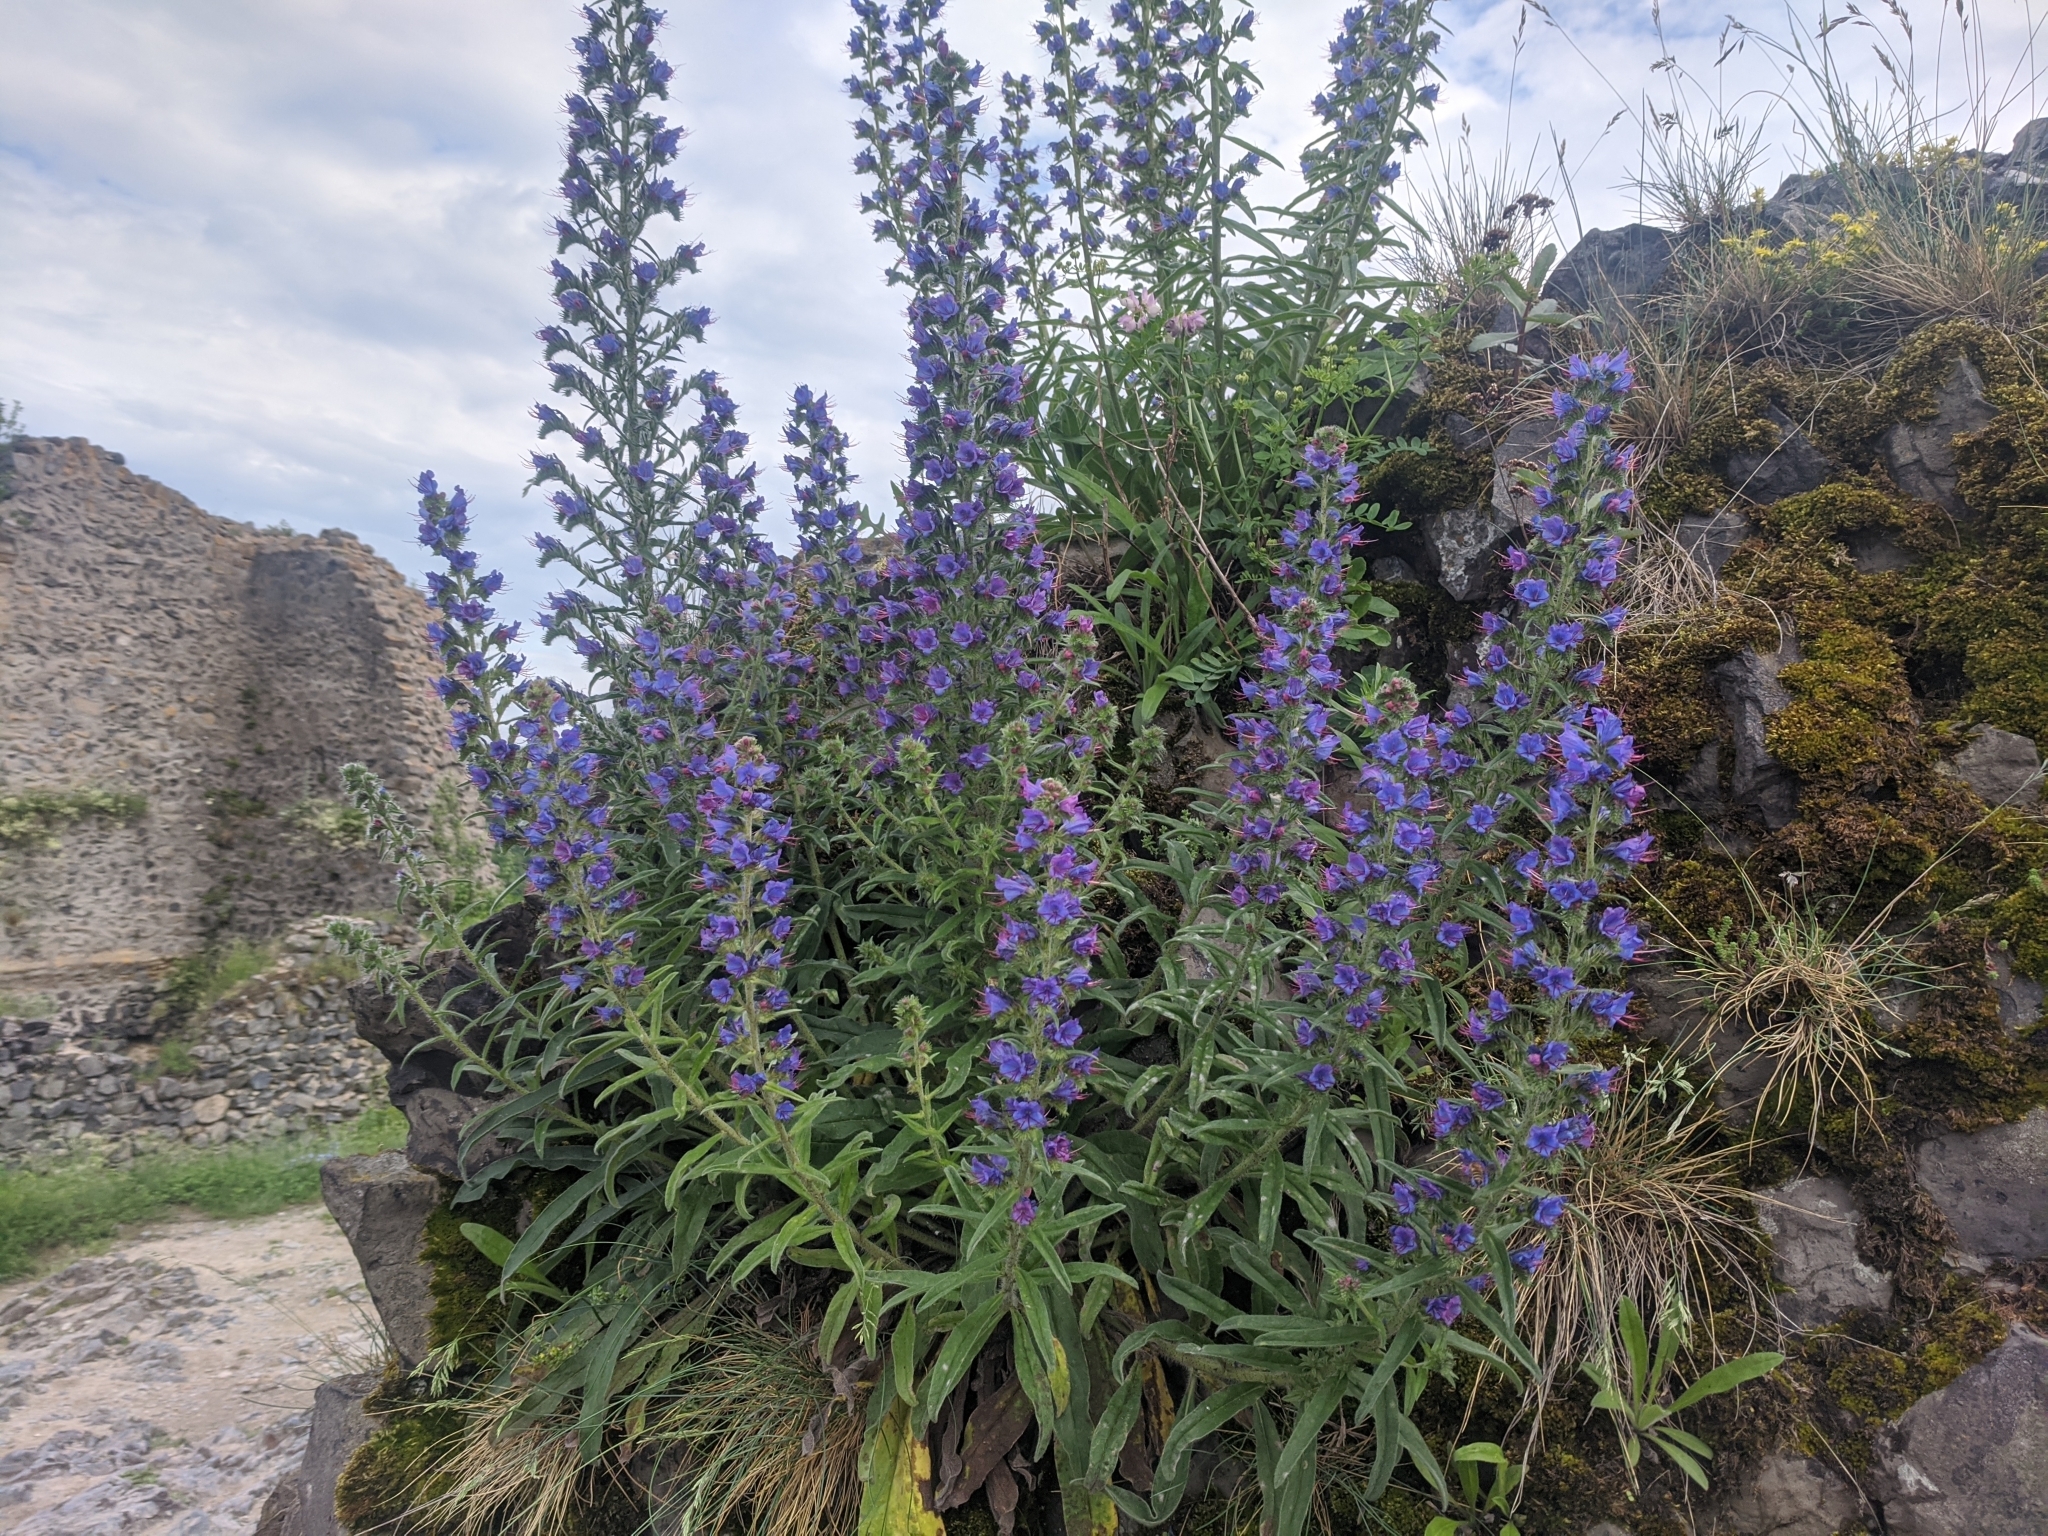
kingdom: Plantae
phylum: Tracheophyta
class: Magnoliopsida
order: Boraginales
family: Boraginaceae
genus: Echium
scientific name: Echium vulgare
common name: Common viper's bugloss
